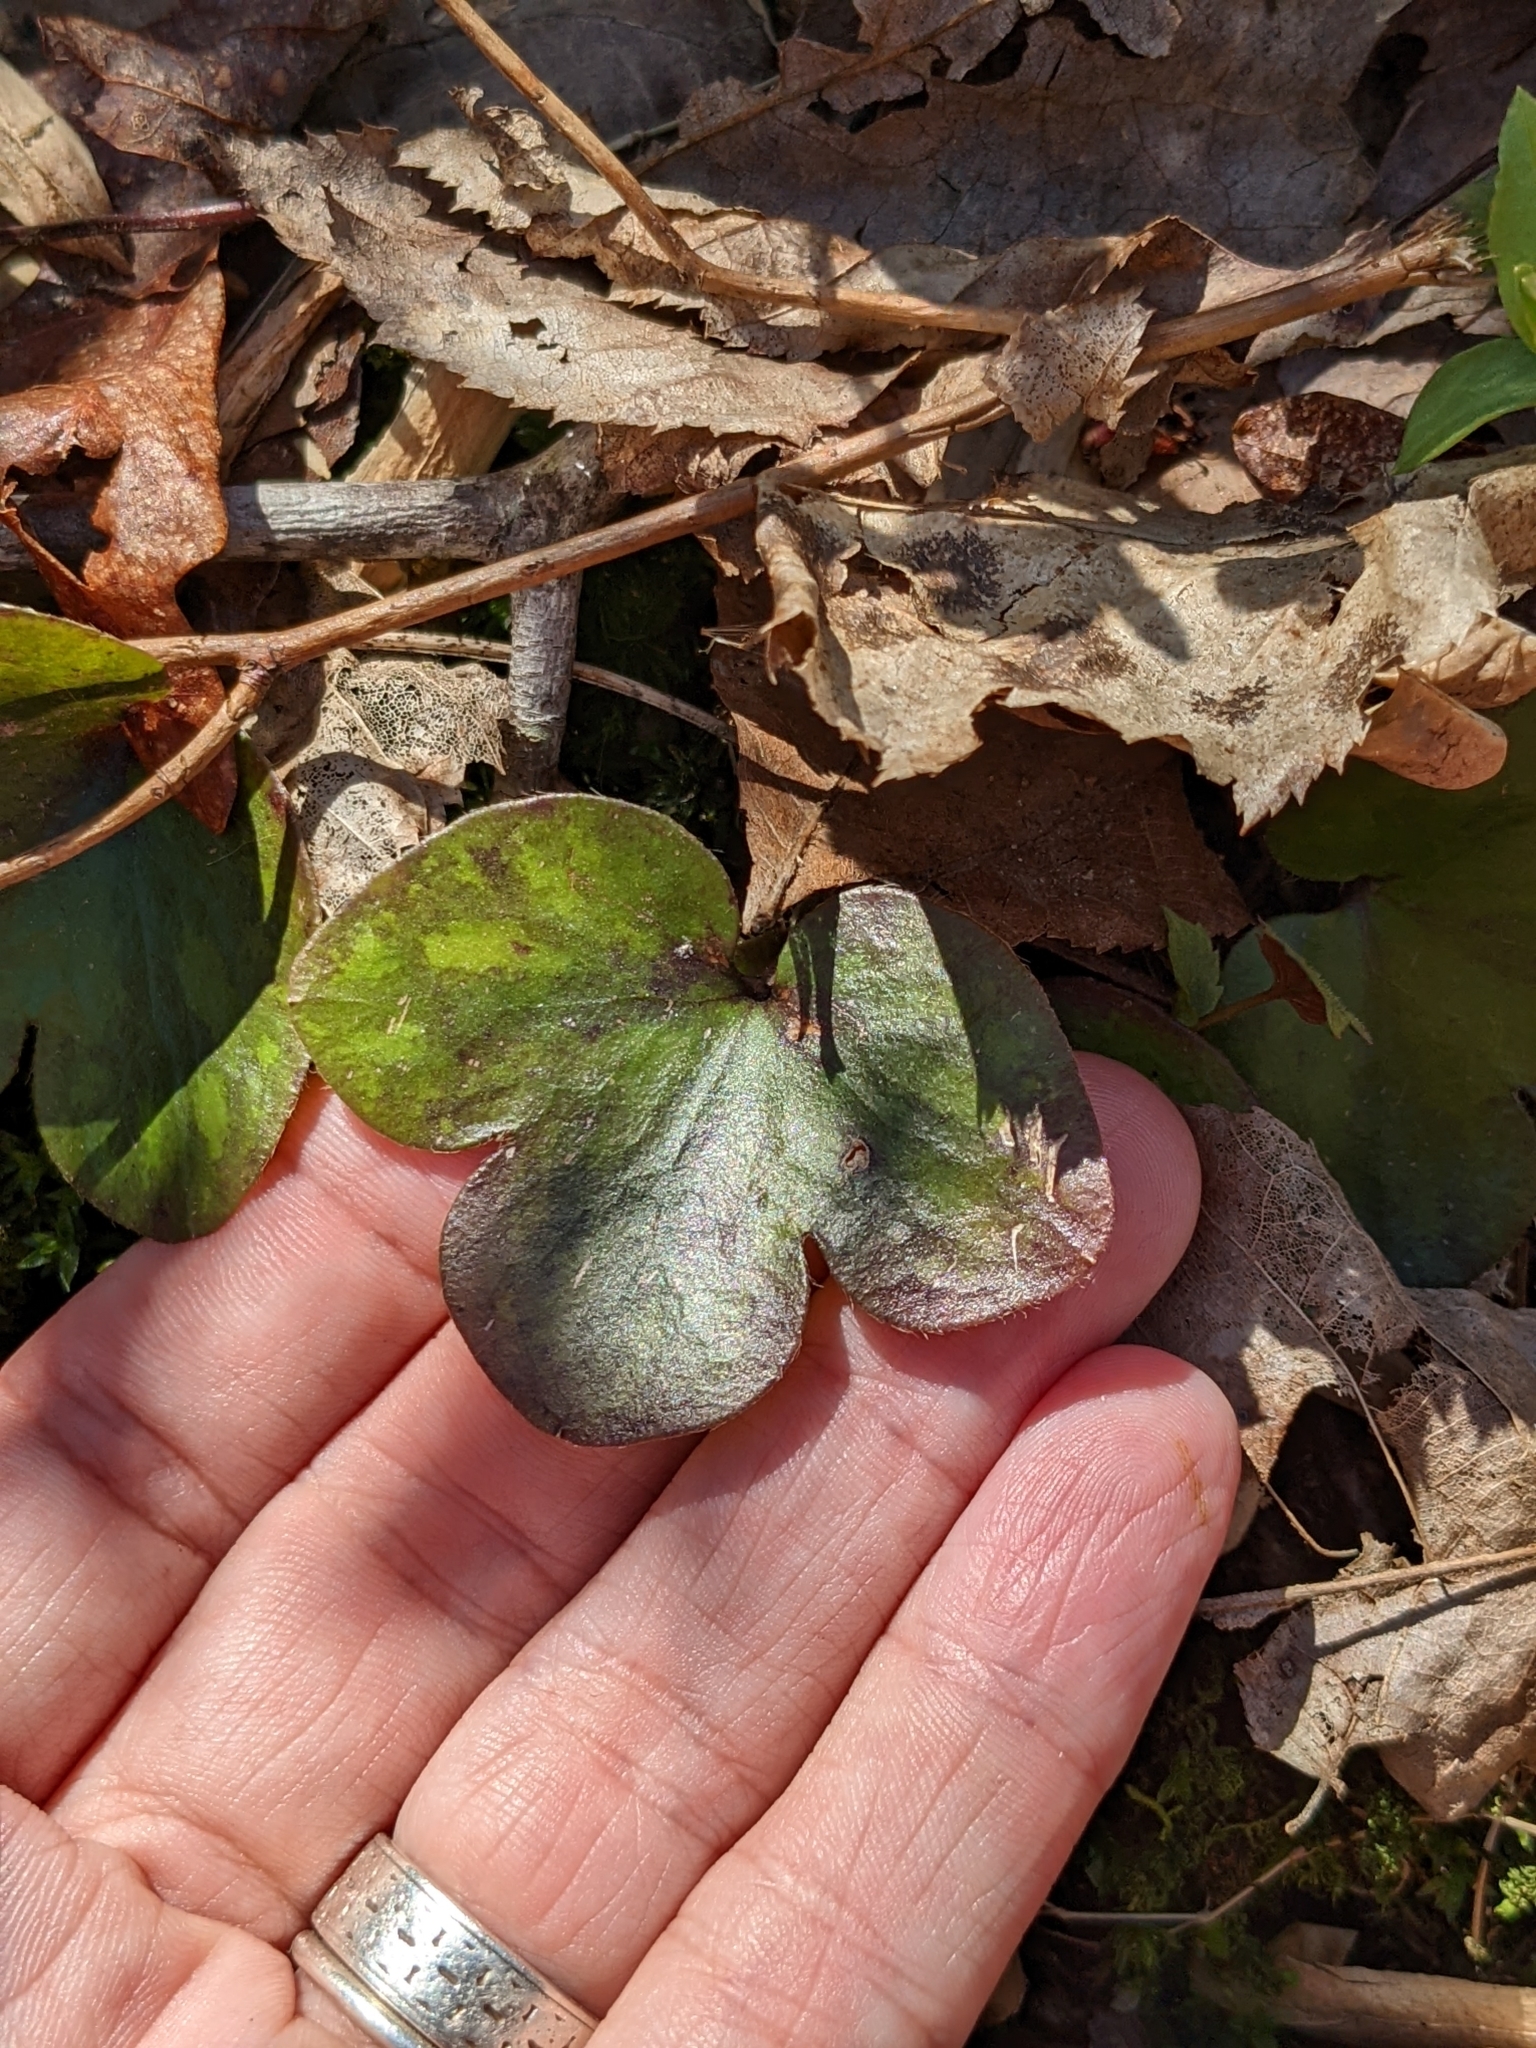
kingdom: Plantae
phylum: Tracheophyta
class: Magnoliopsida
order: Ranunculales
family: Ranunculaceae
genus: Hepatica
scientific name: Hepatica americana
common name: American hepatica
